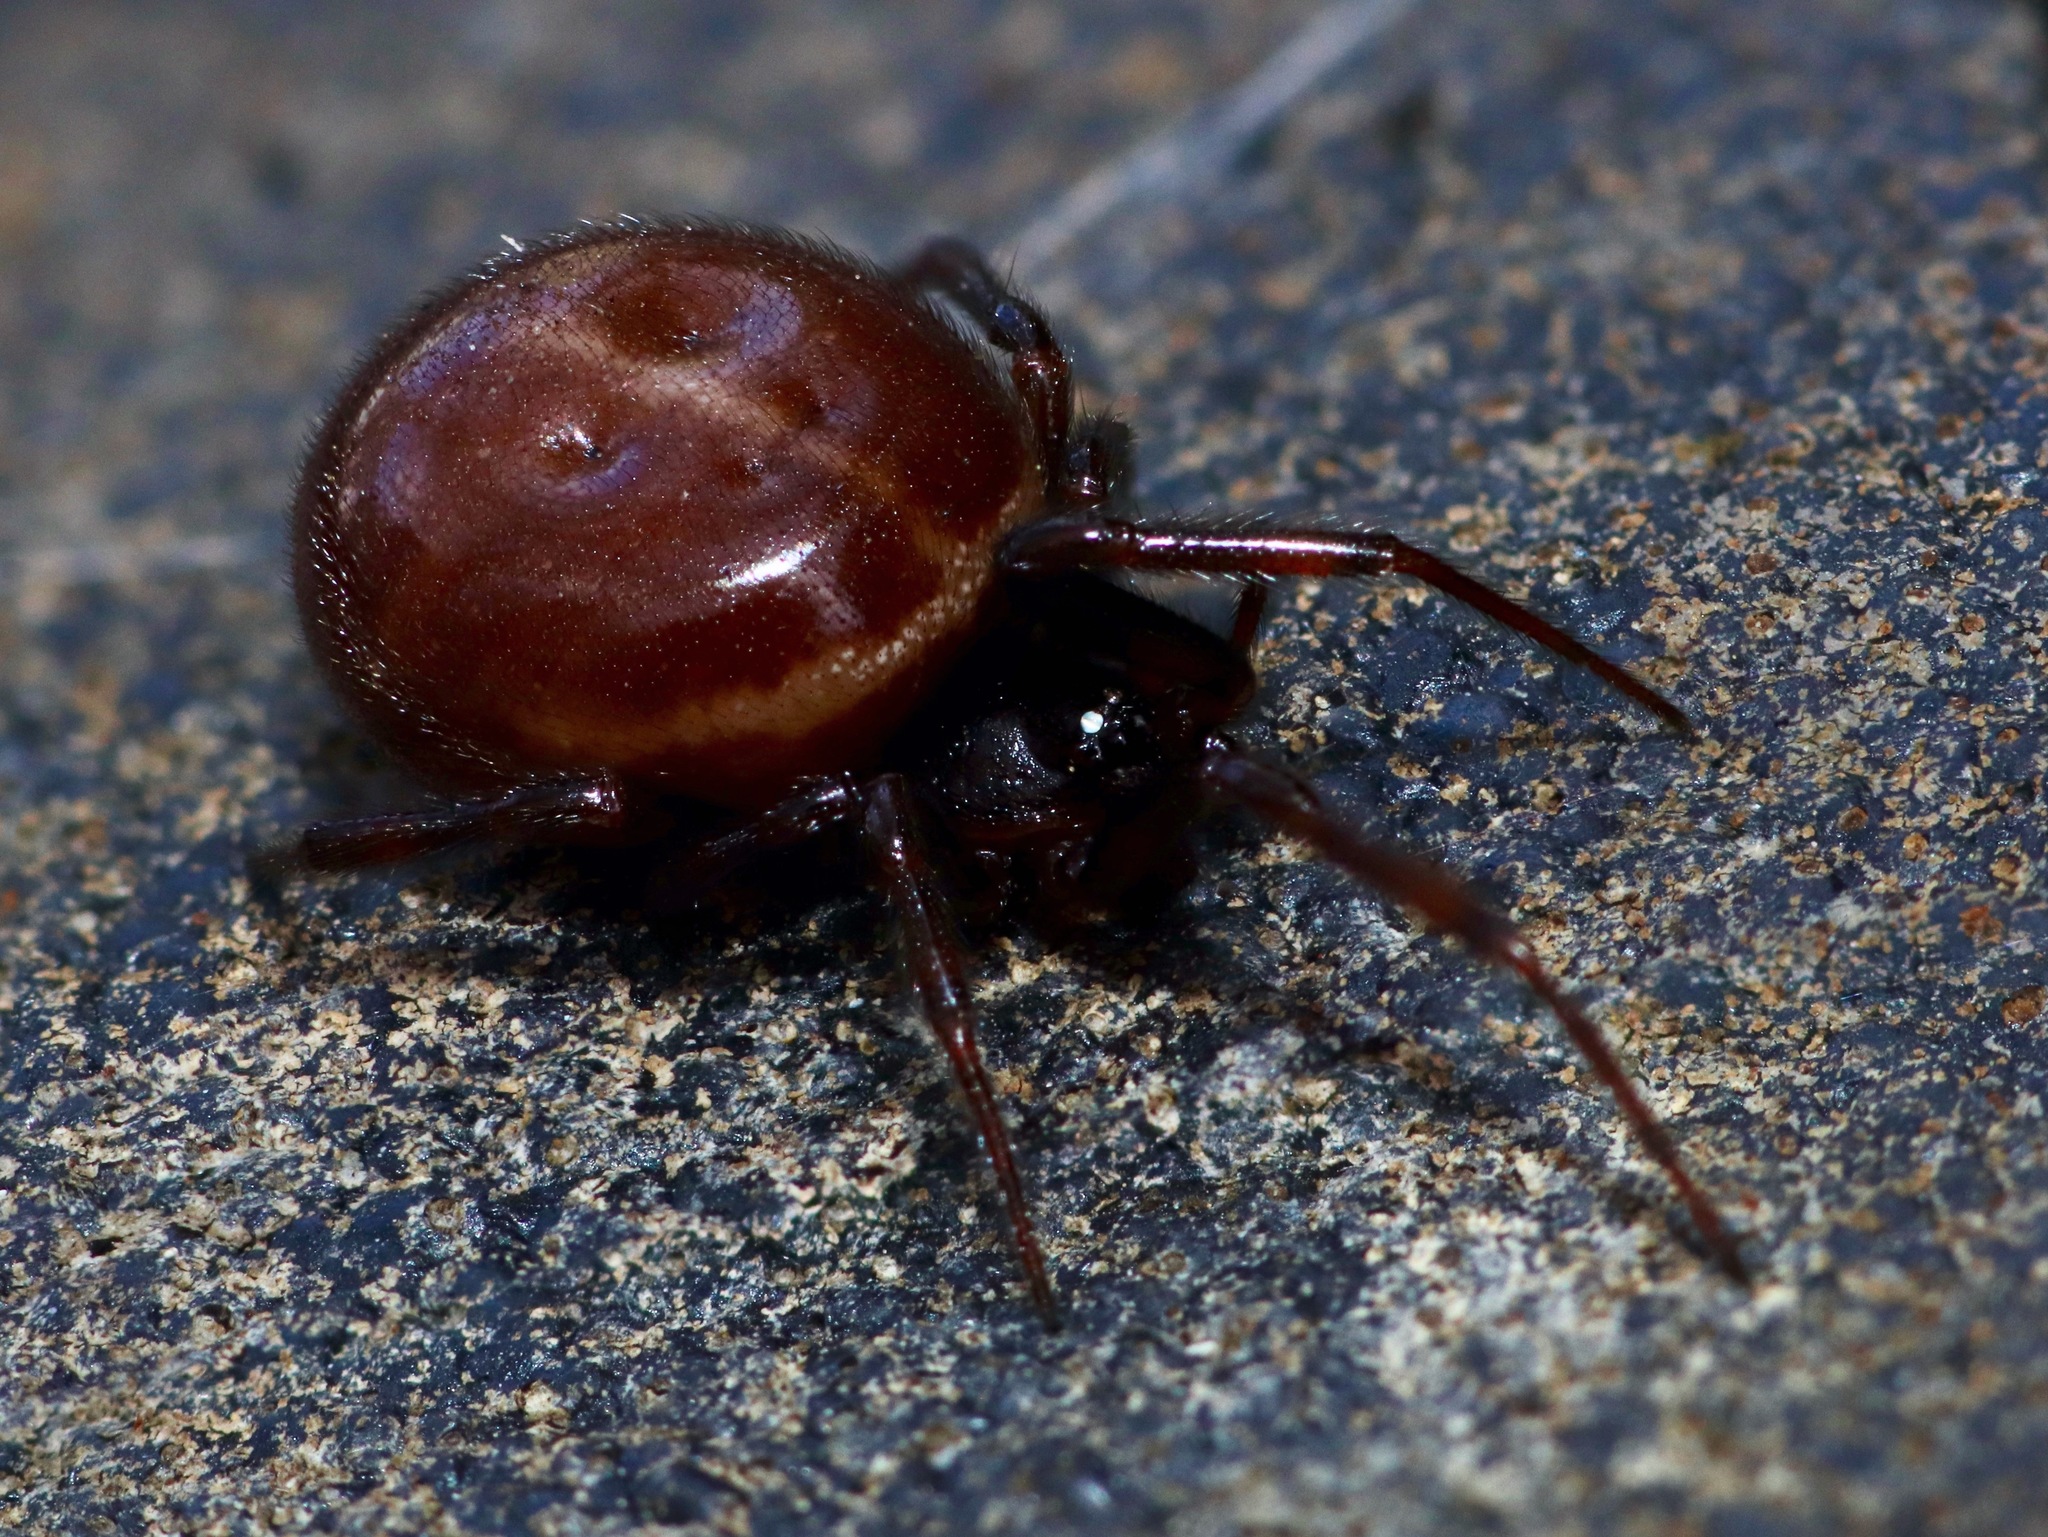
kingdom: Animalia
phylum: Arthropoda
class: Arachnida
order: Araneae
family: Theridiidae
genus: Steatoda
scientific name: Steatoda borealis
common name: Boreal combfoot
